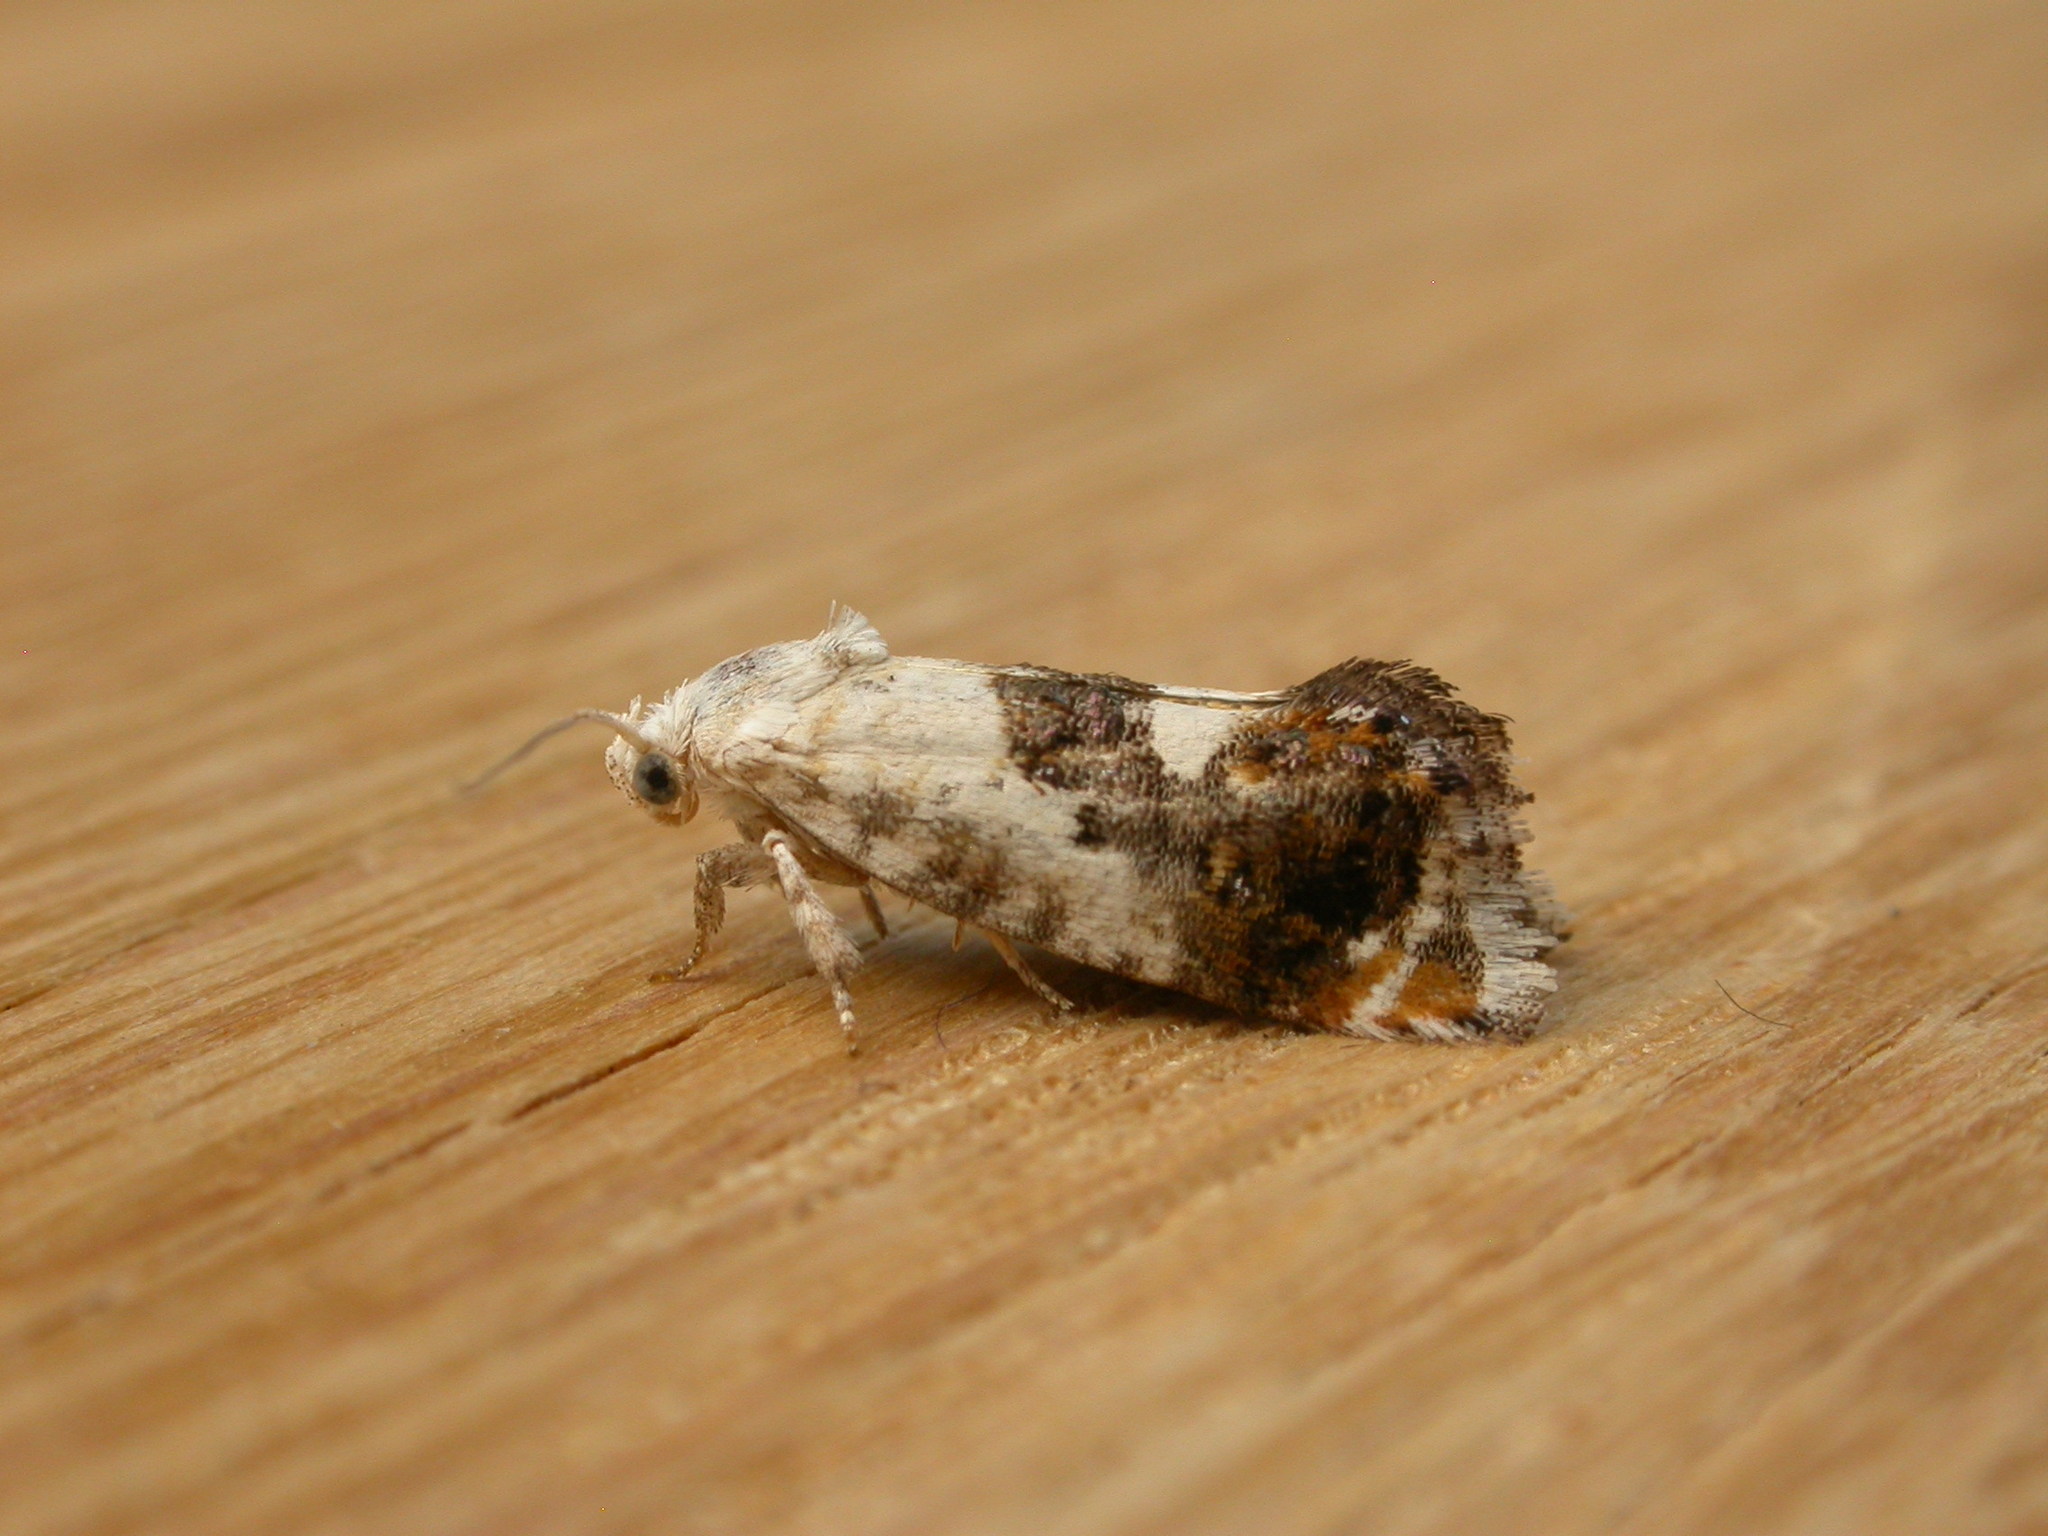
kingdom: Animalia
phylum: Arthropoda
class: Insecta
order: Lepidoptera
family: Depressariidae
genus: Progonica
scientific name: Progonica rhothias
